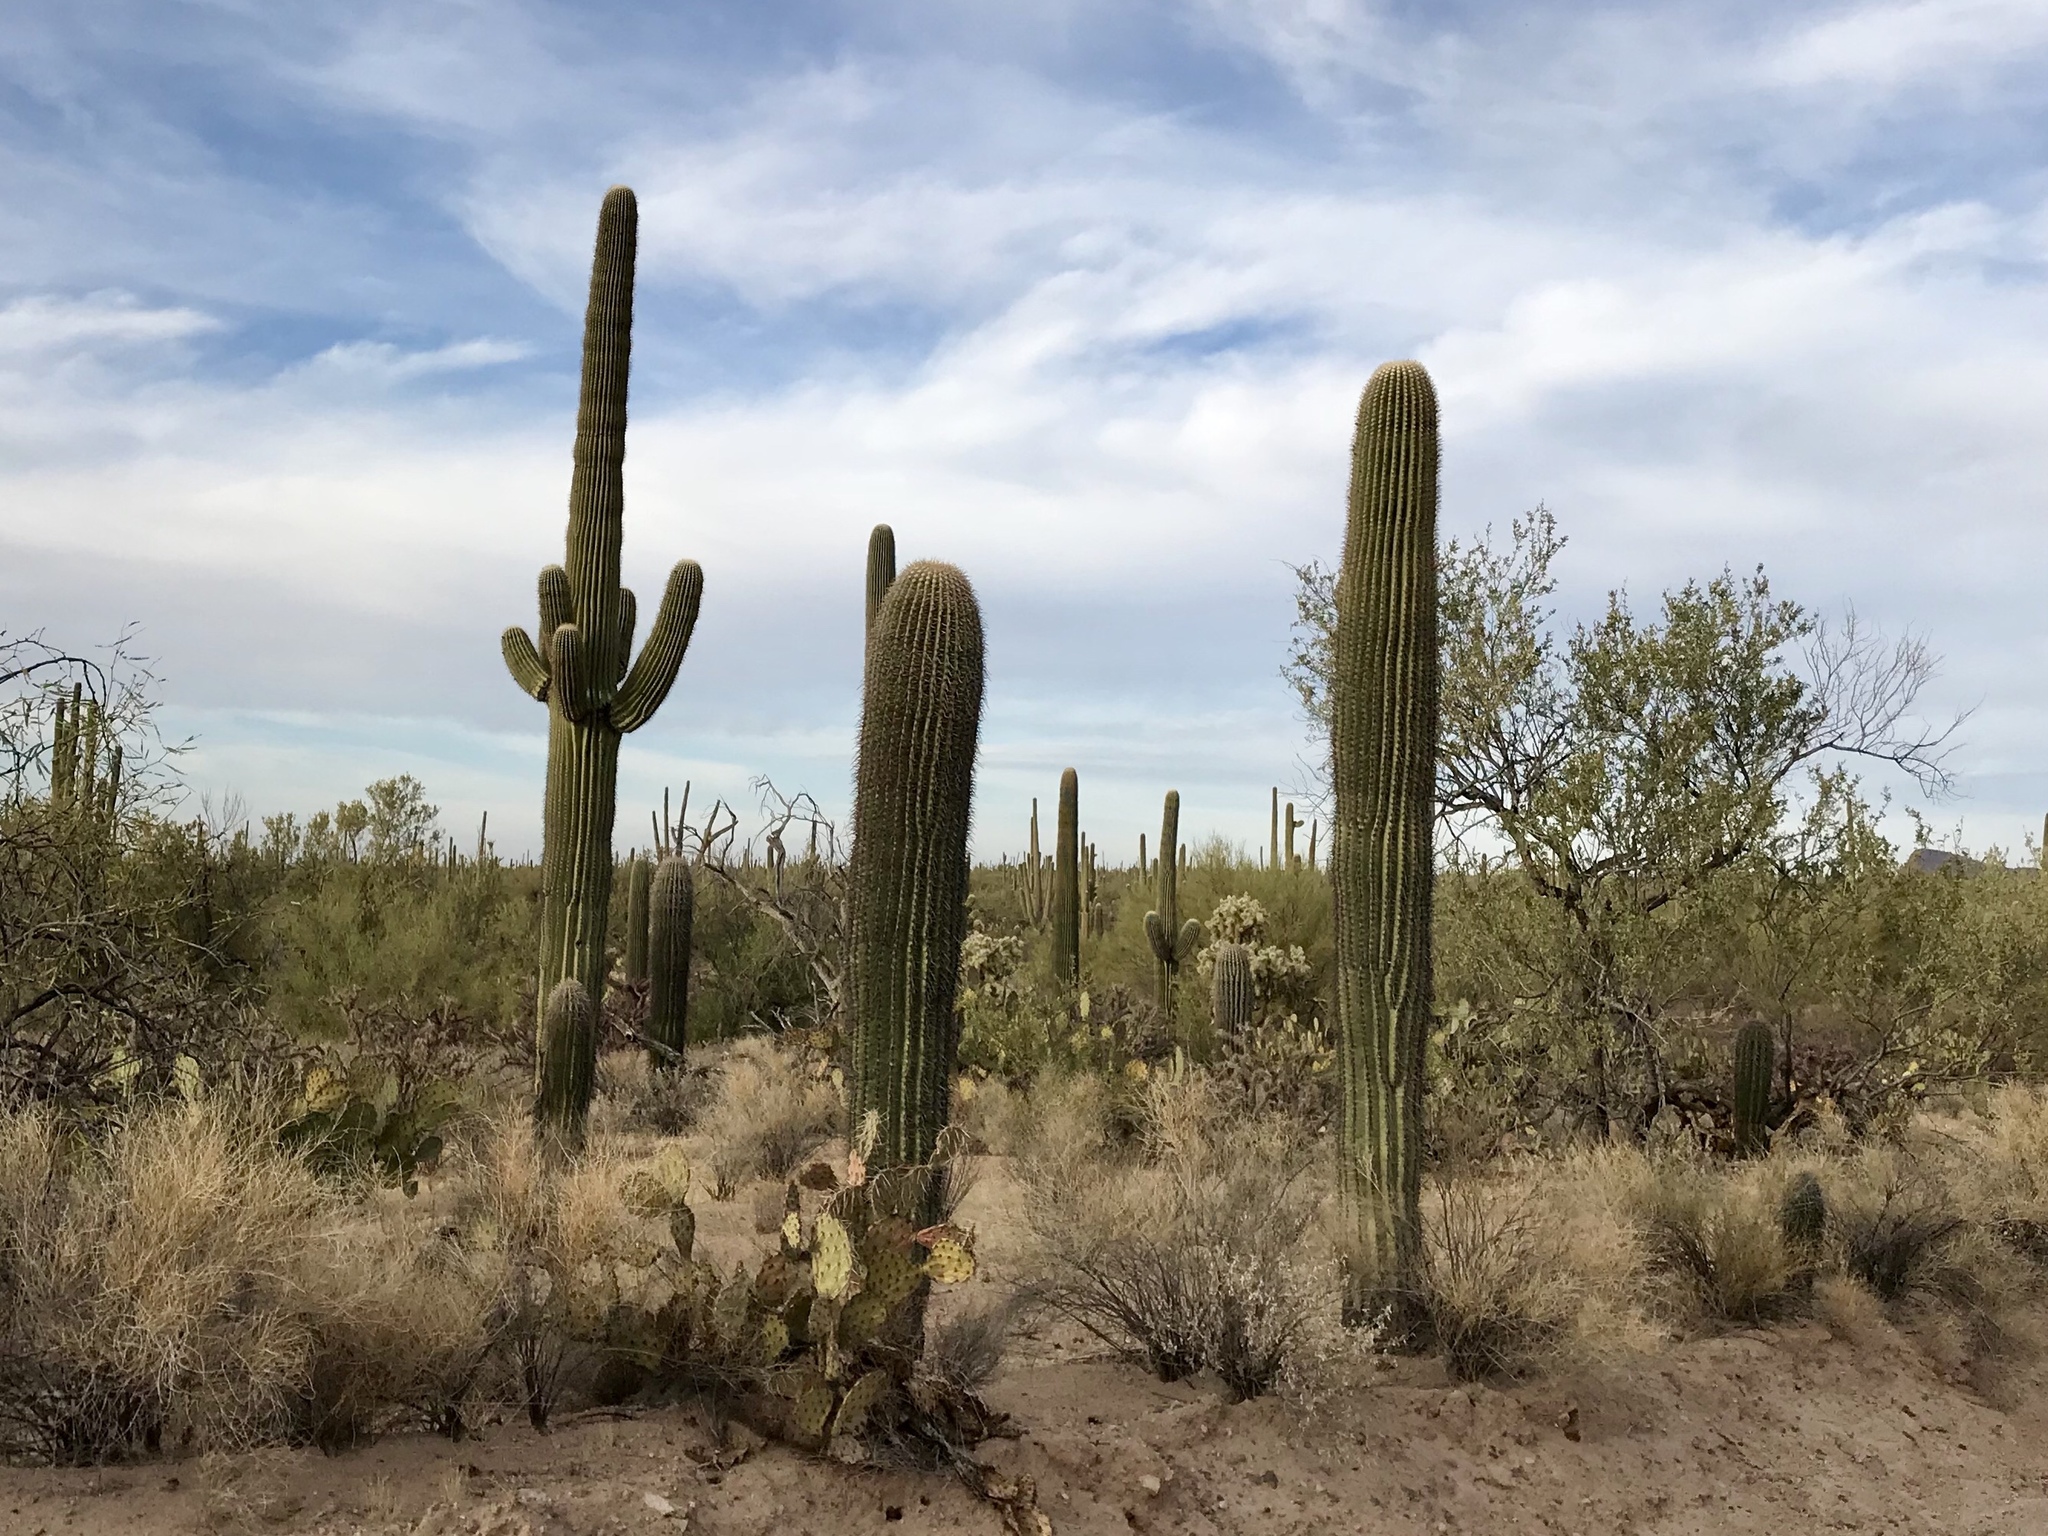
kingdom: Plantae
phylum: Tracheophyta
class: Magnoliopsida
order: Caryophyllales
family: Cactaceae
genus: Carnegiea
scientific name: Carnegiea gigantea
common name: Saguaro
